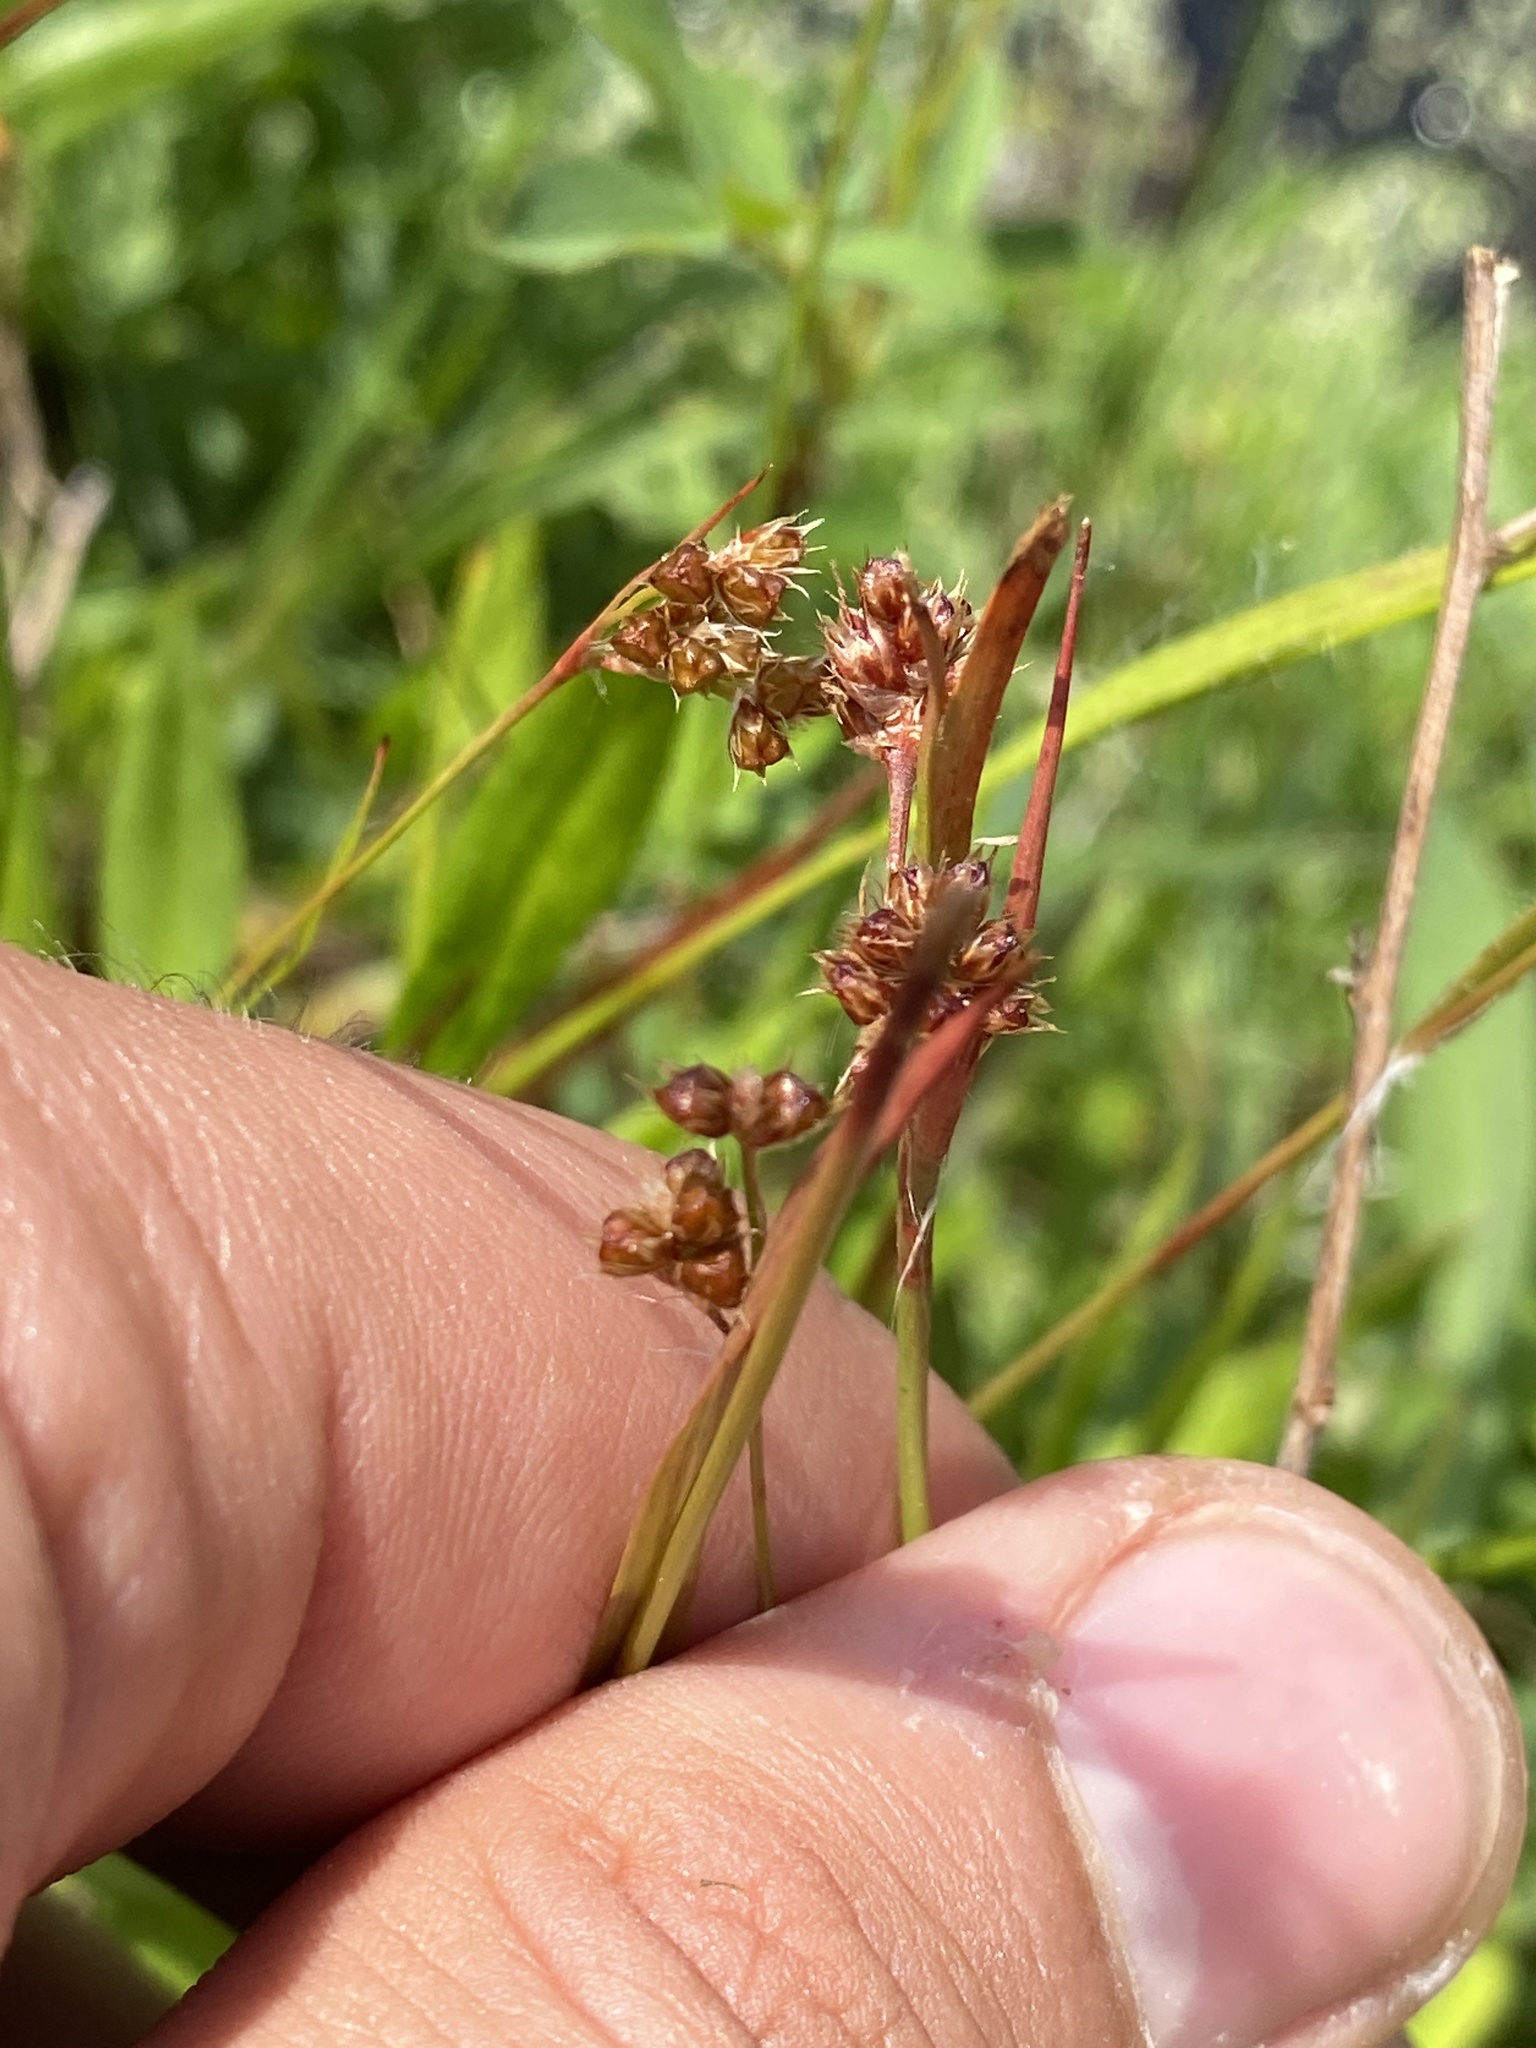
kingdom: Plantae
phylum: Tracheophyta
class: Liliopsida
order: Poales
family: Juncaceae
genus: Luzula
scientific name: Luzula multiflora
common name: Heath wood-rush
